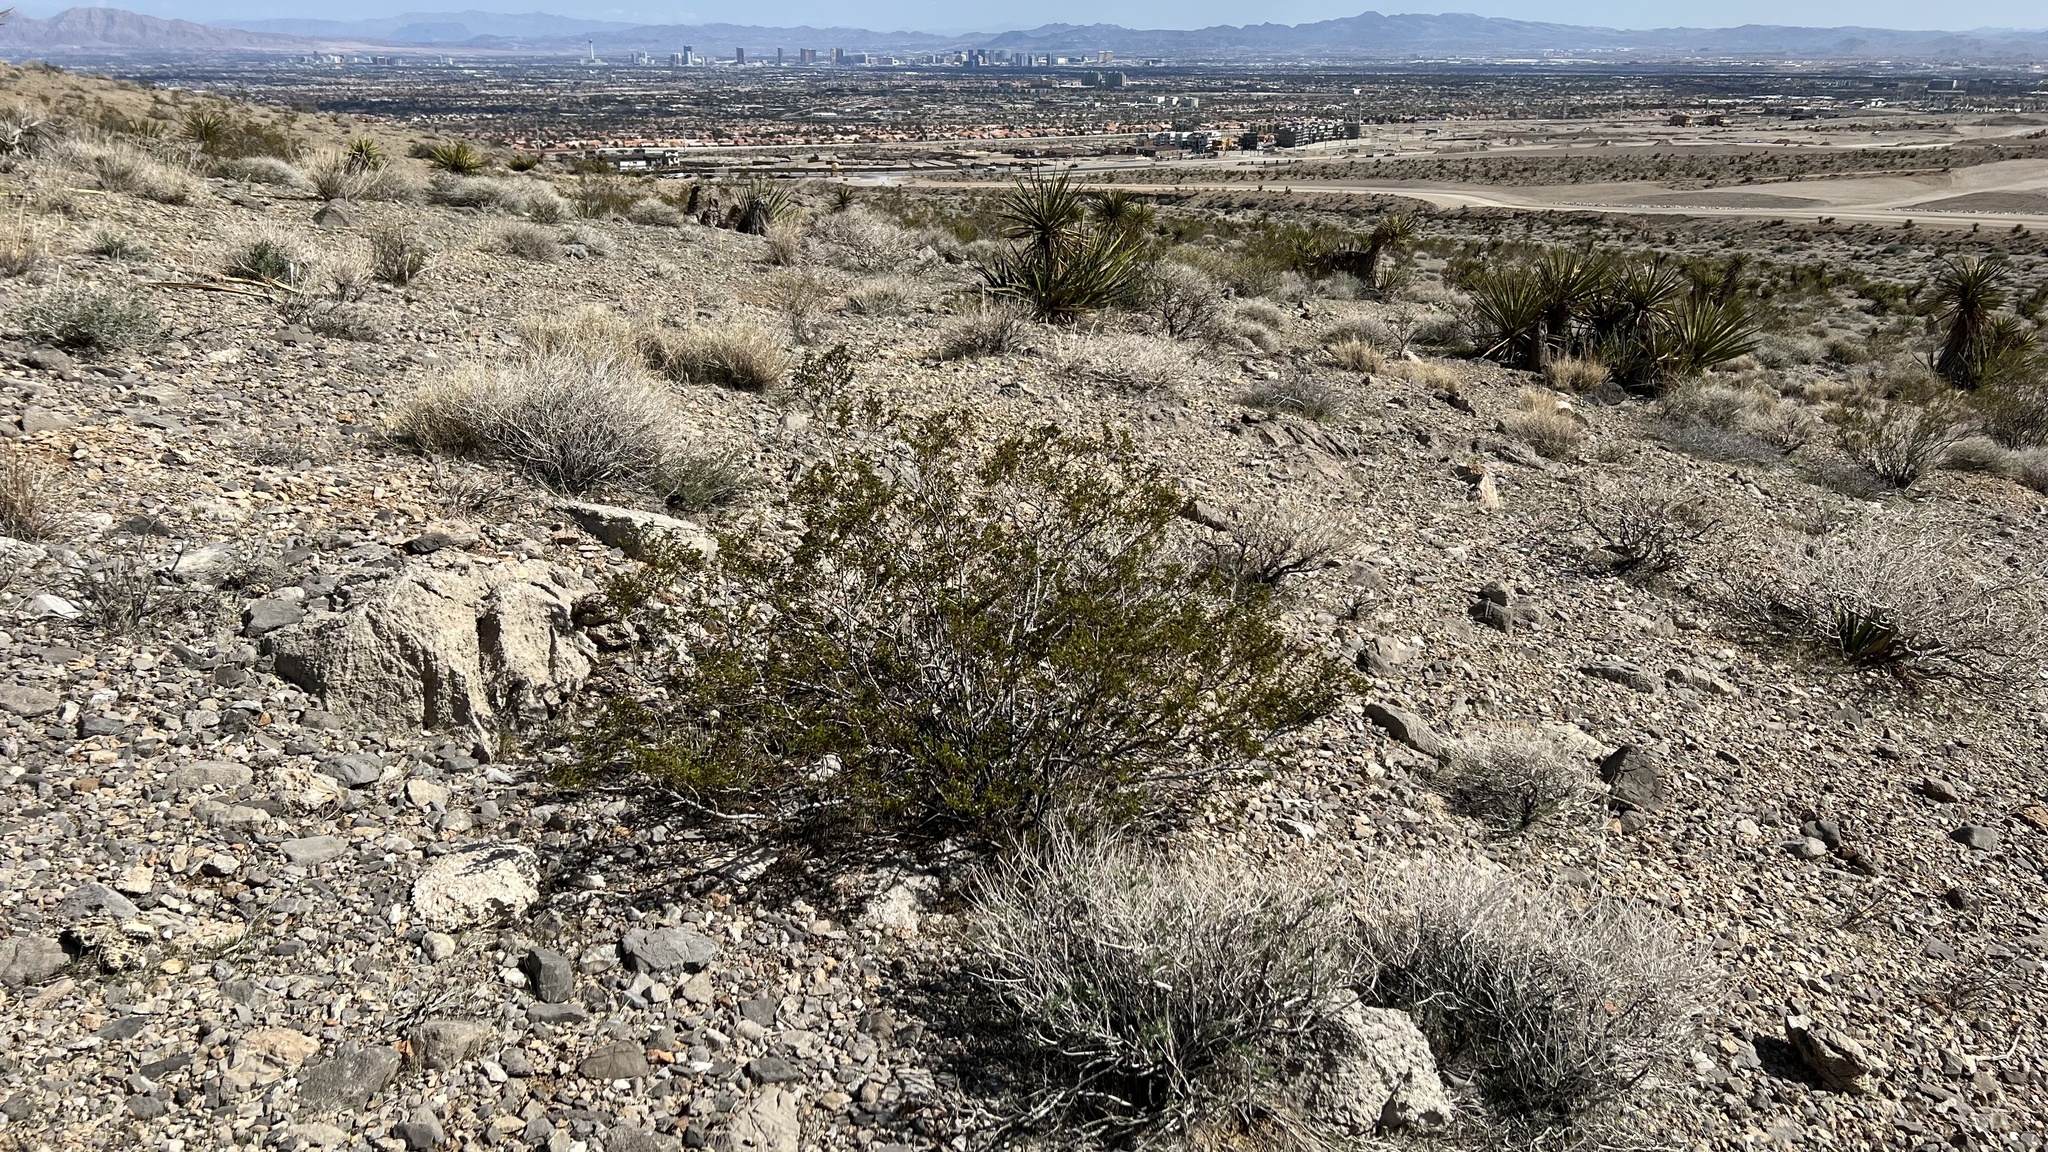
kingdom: Plantae
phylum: Tracheophyta
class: Magnoliopsida
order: Zygophyllales
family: Zygophyllaceae
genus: Larrea
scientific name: Larrea tridentata
